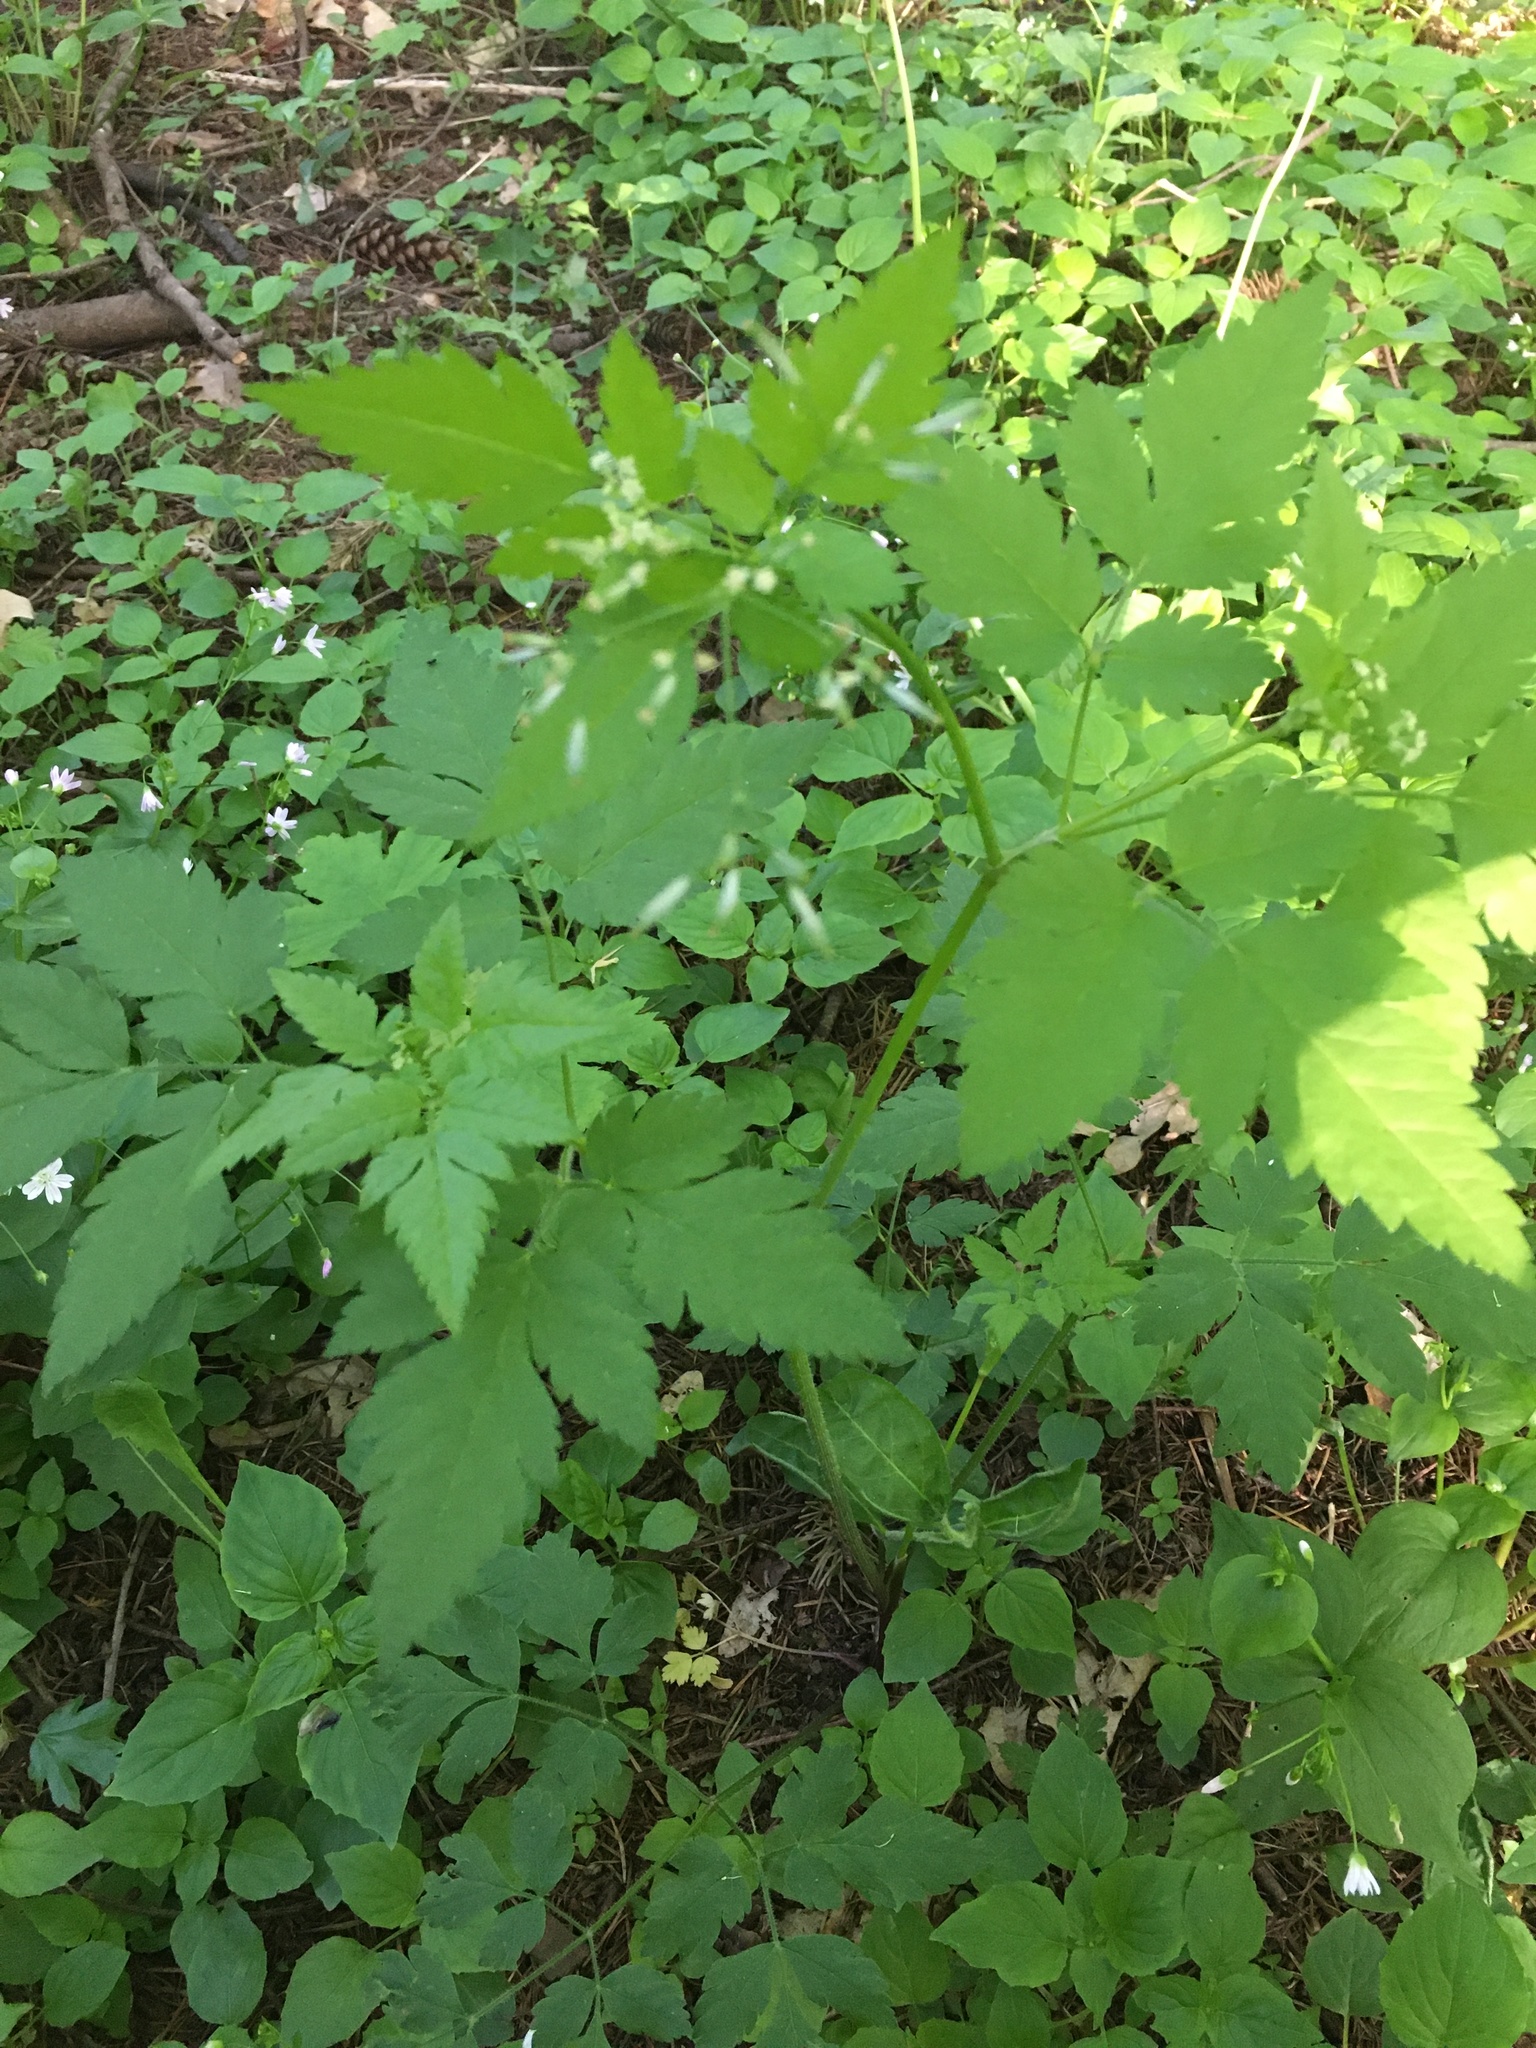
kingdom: Plantae
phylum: Tracheophyta
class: Magnoliopsida
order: Apiales
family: Apiaceae
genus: Osmorhiza
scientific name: Osmorhiza berteroi
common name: Mountain sweet cicely
